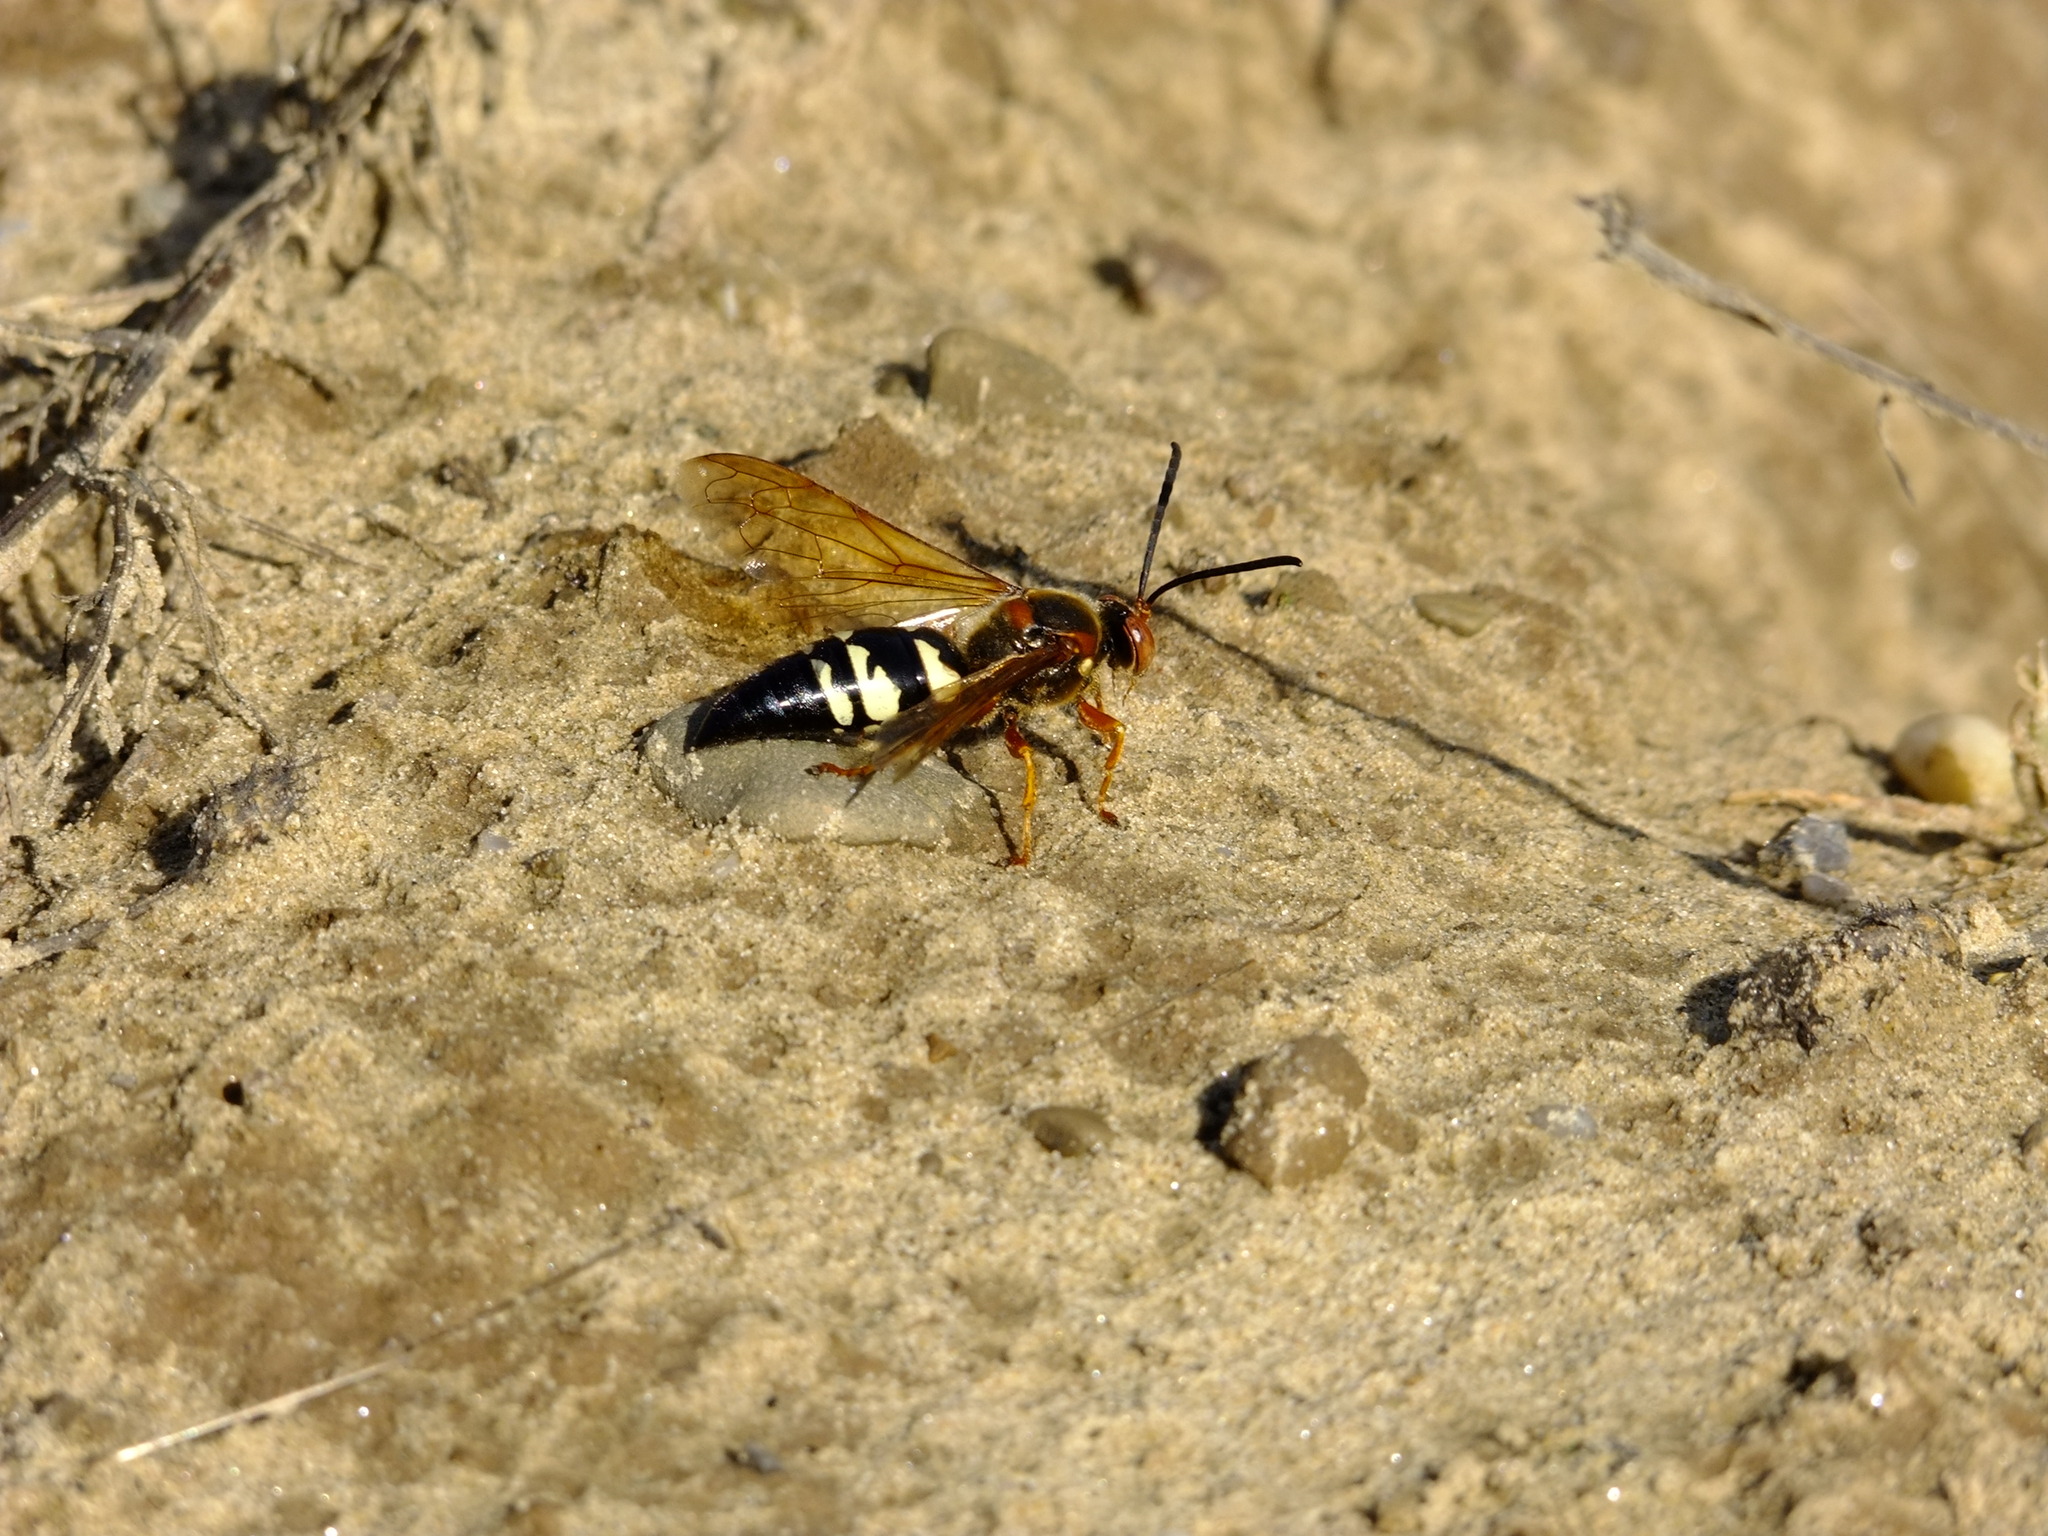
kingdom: Animalia
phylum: Arthropoda
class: Insecta
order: Hymenoptera
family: Crabronidae
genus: Sphecius
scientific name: Sphecius speciosus
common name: Cicada killer
